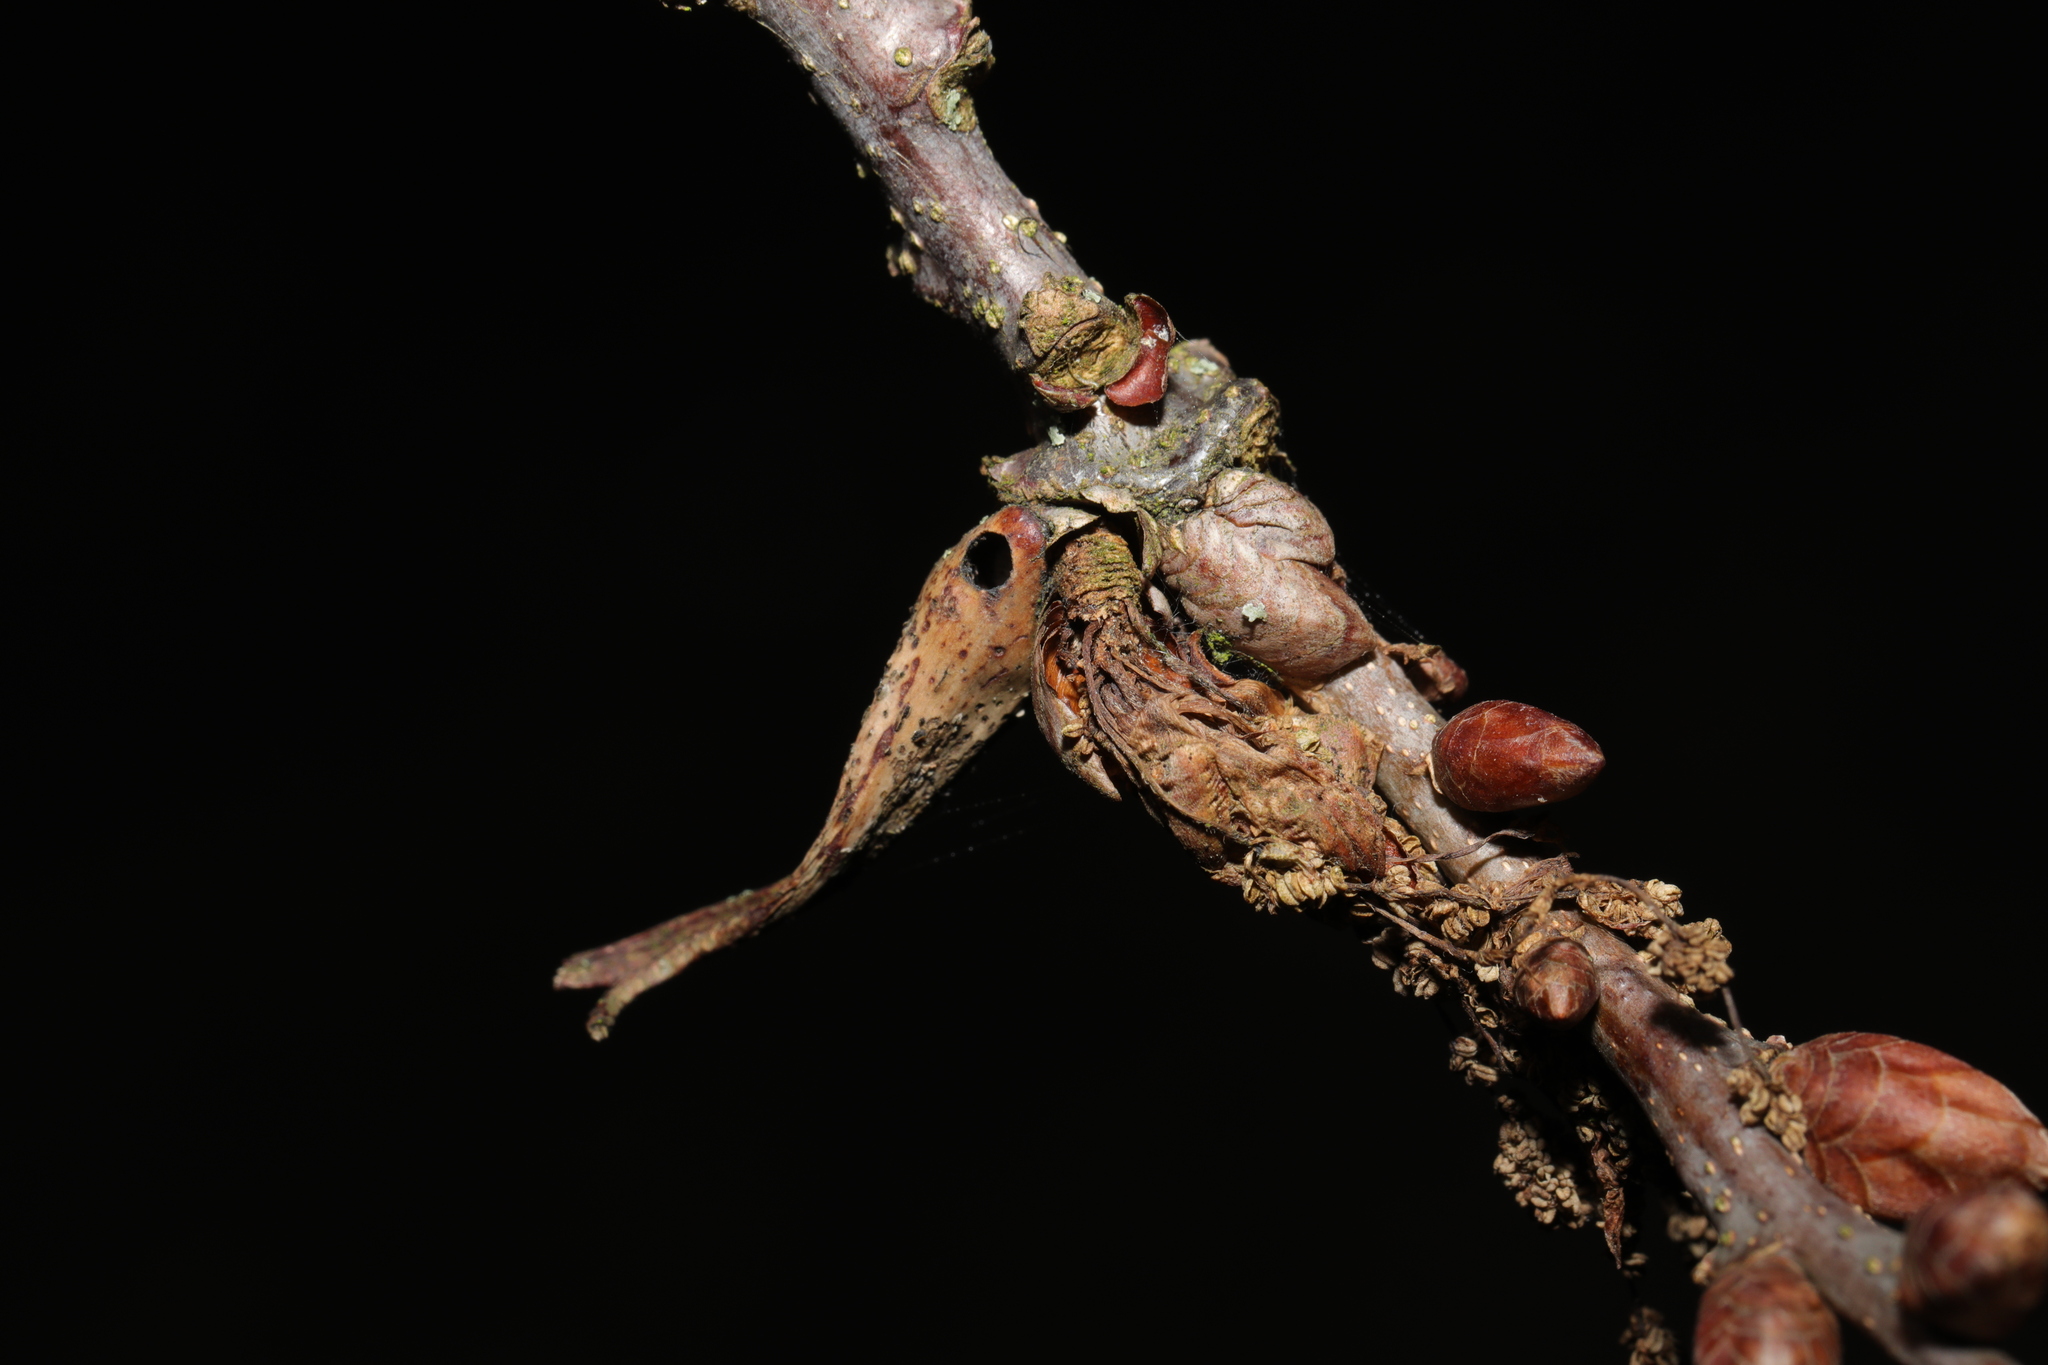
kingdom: Animalia
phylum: Arthropoda
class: Insecta
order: Hymenoptera
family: Cynipidae
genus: Andricus
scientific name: Andricus aries
